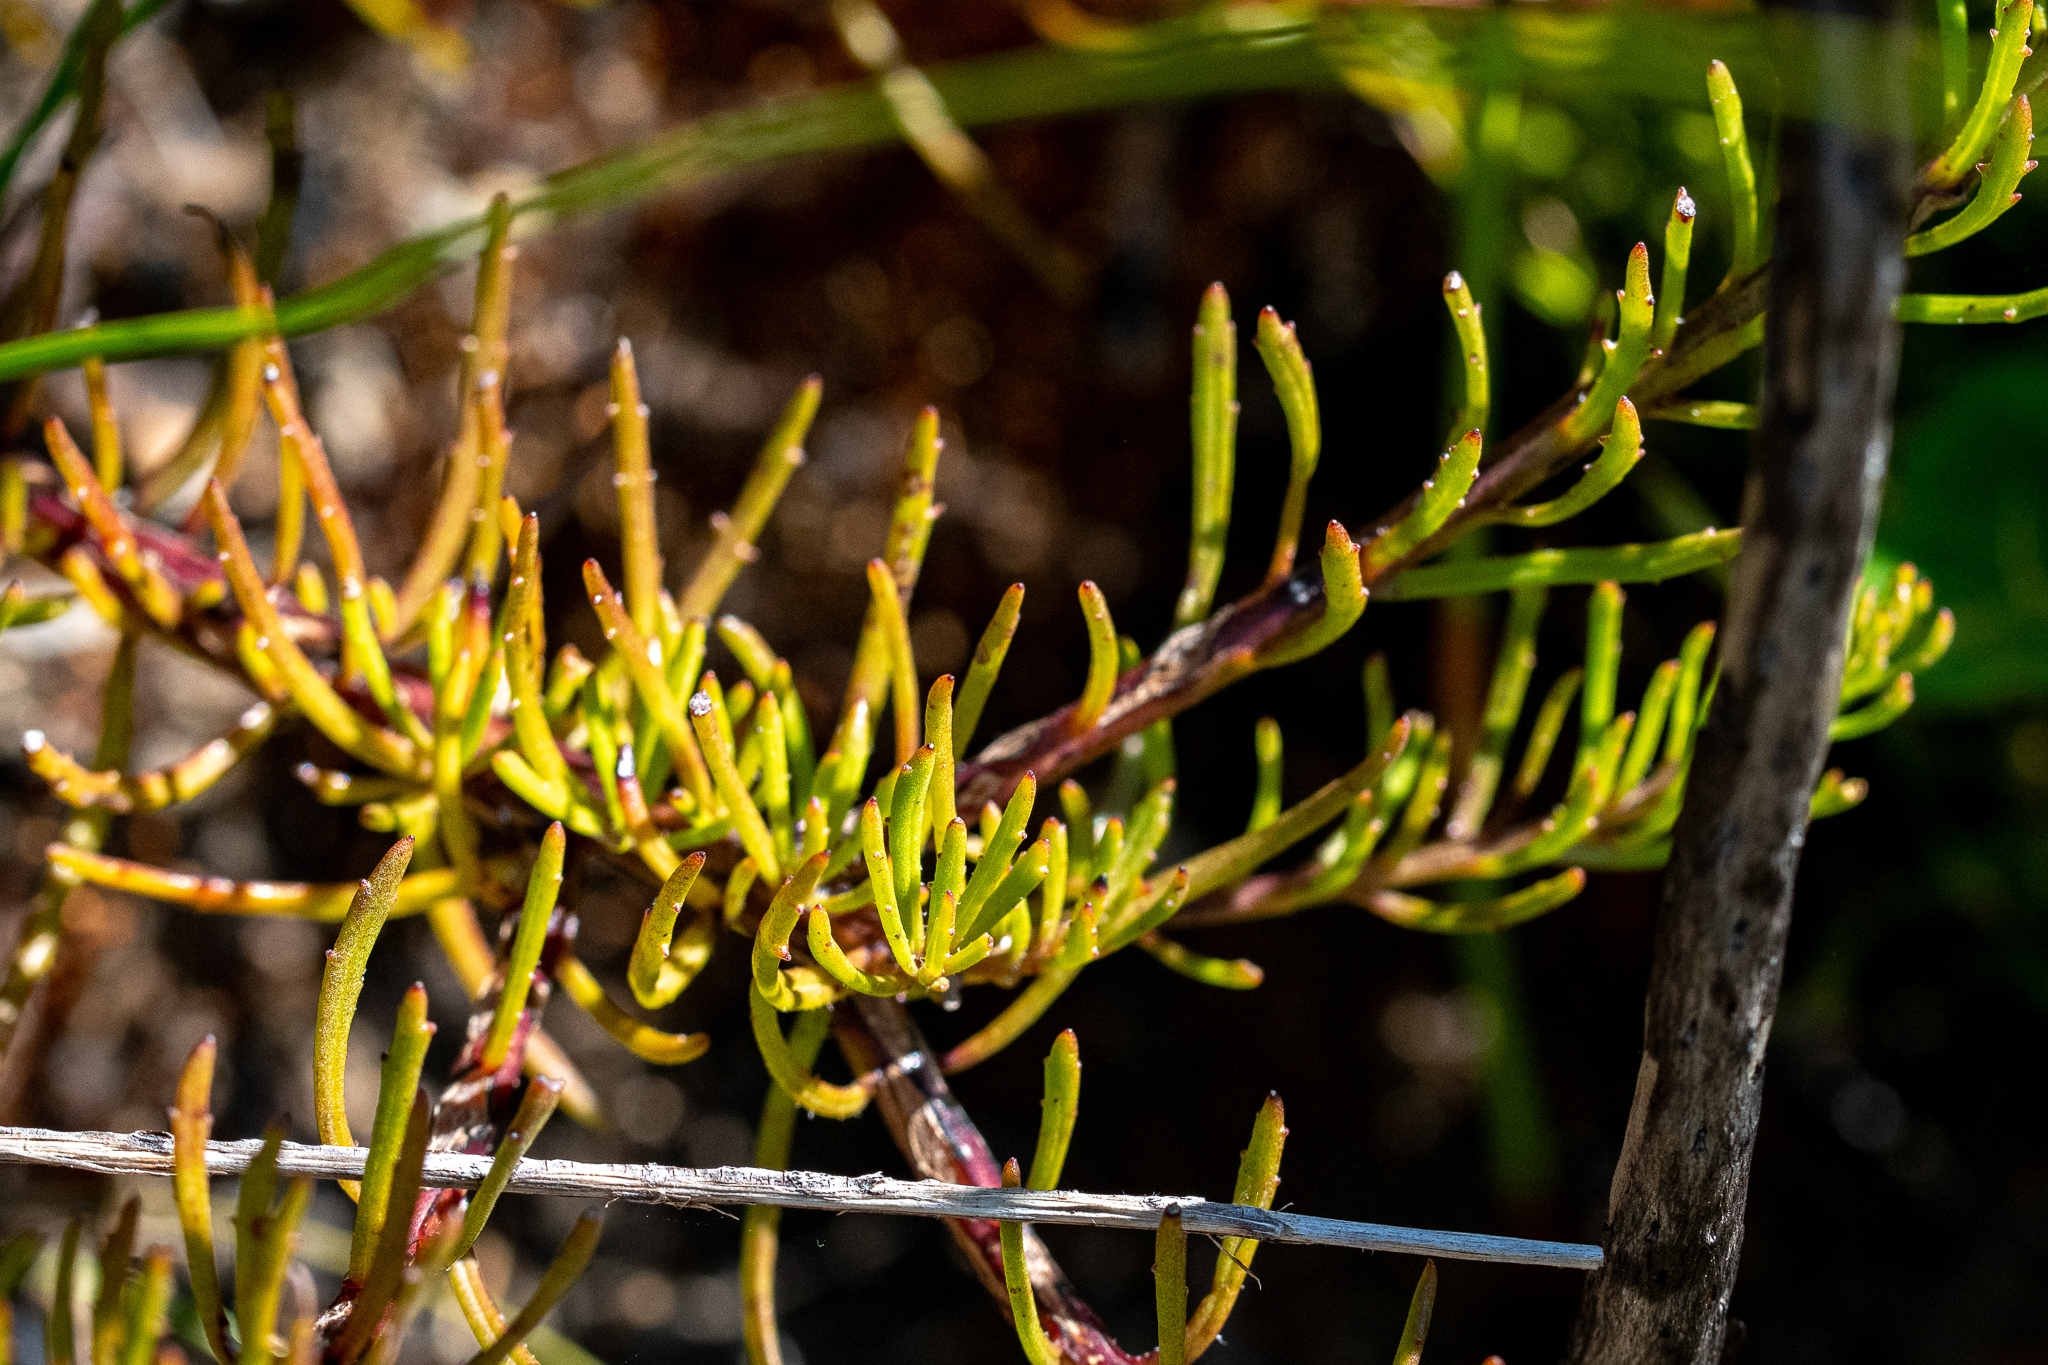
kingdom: Plantae
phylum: Tracheophyta
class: Magnoliopsida
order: Lamiales
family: Scrophulariaceae
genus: Pseudoselago
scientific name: Pseudoselago spuria
